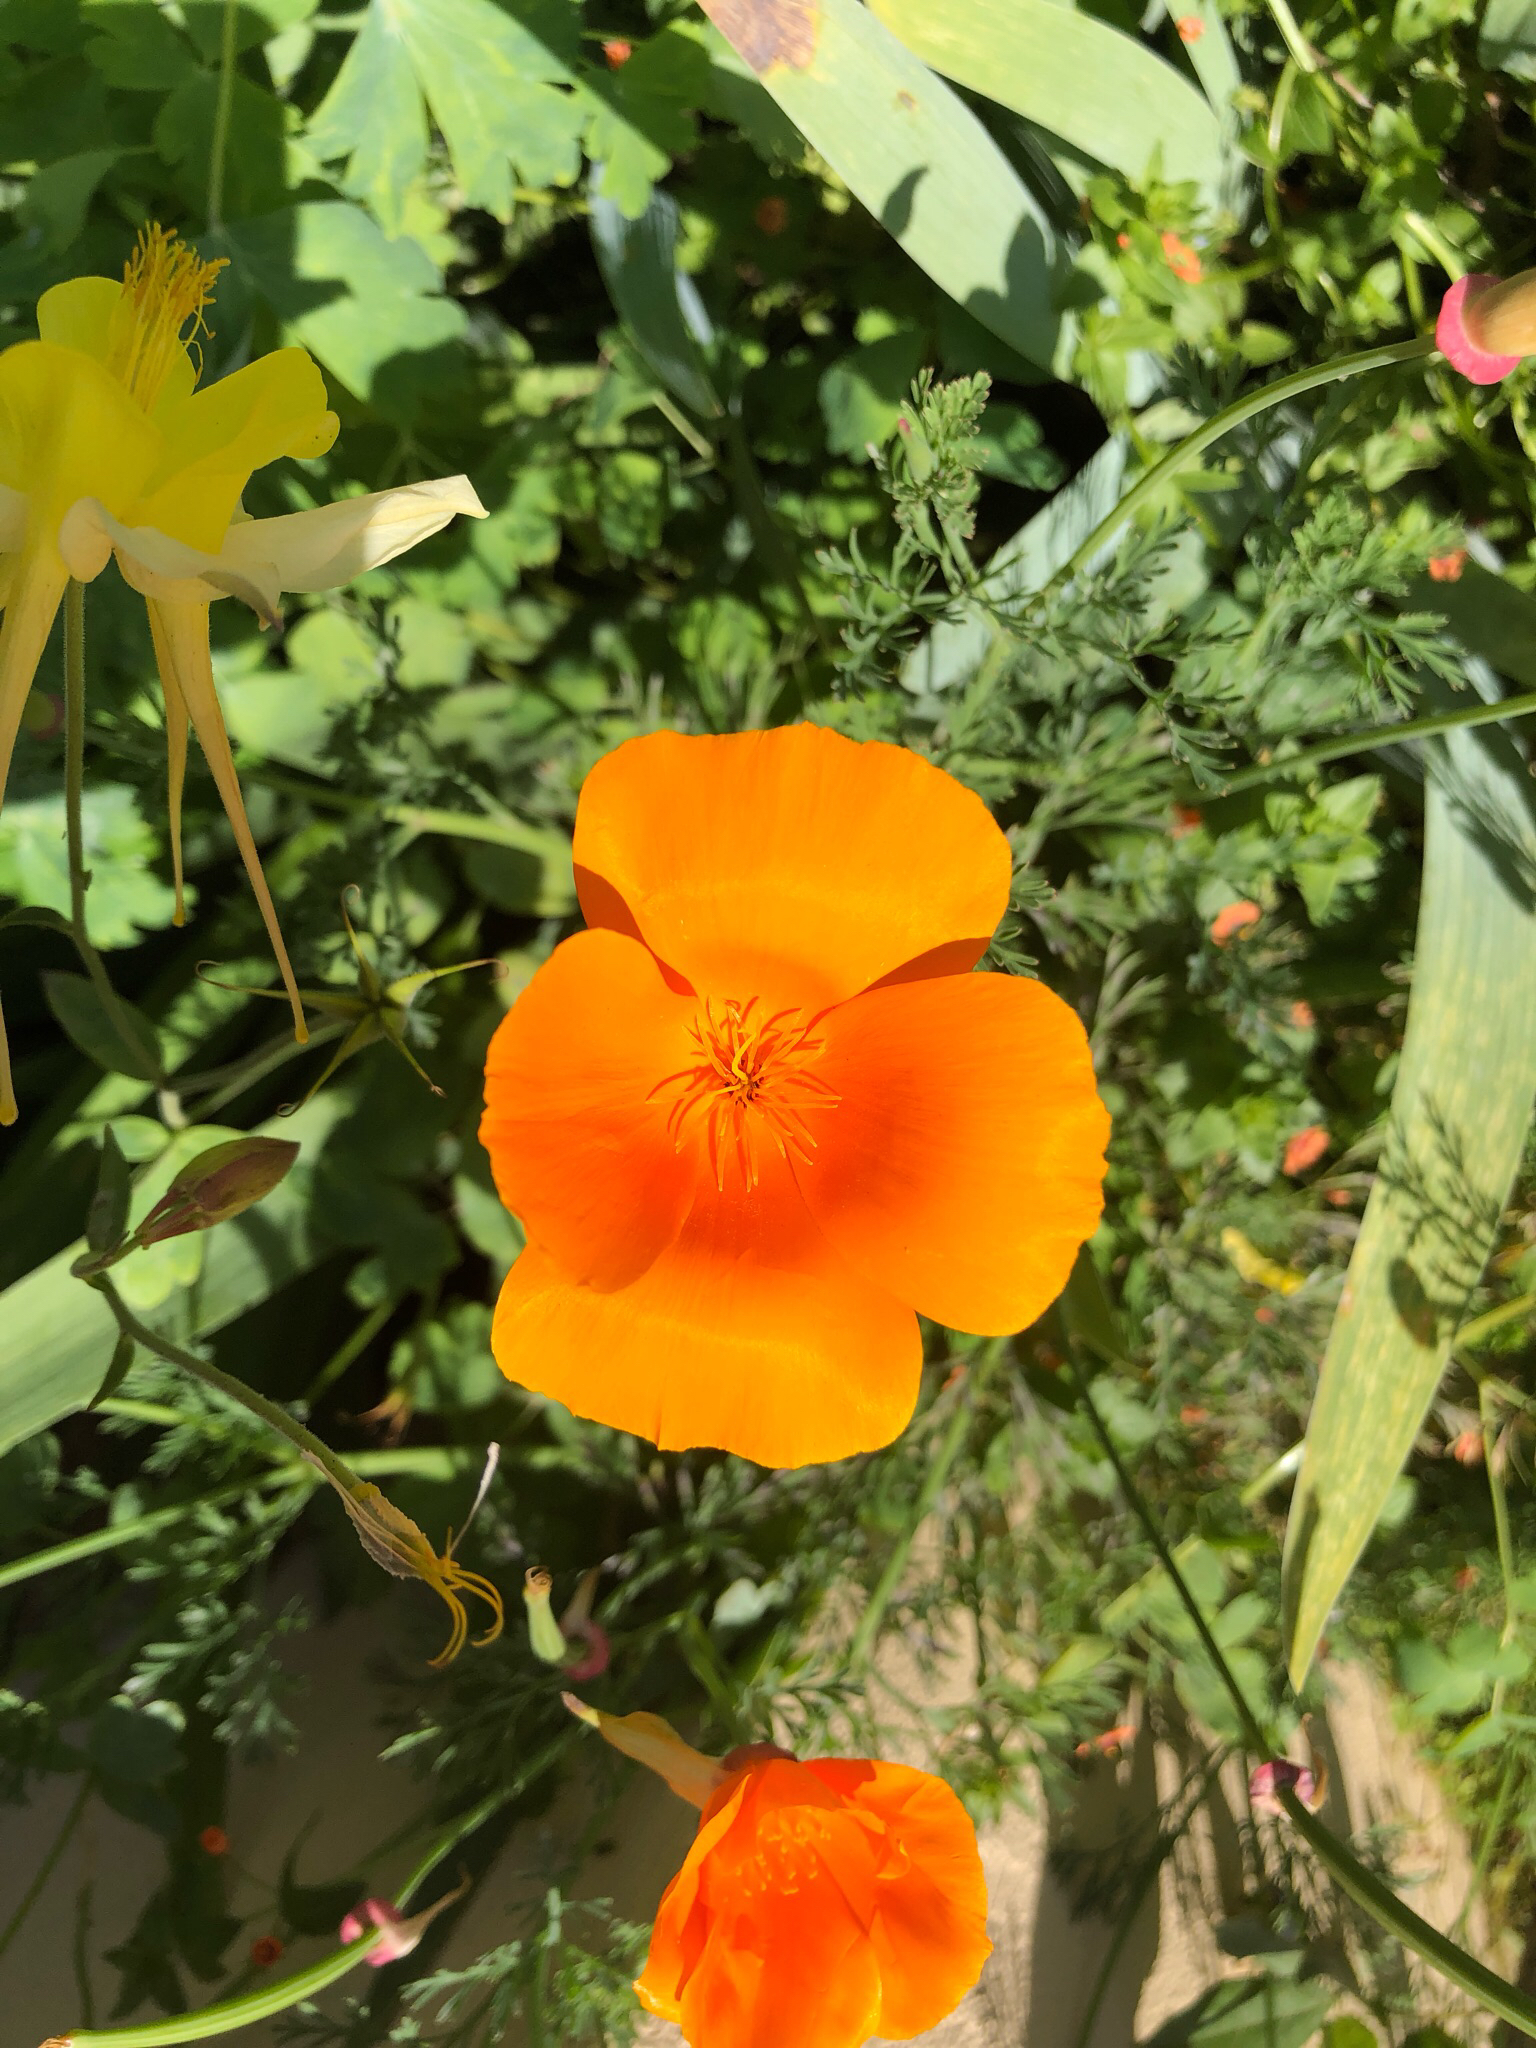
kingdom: Plantae
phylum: Tracheophyta
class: Magnoliopsida
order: Ranunculales
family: Papaveraceae
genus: Eschscholzia
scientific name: Eschscholzia californica
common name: California poppy
